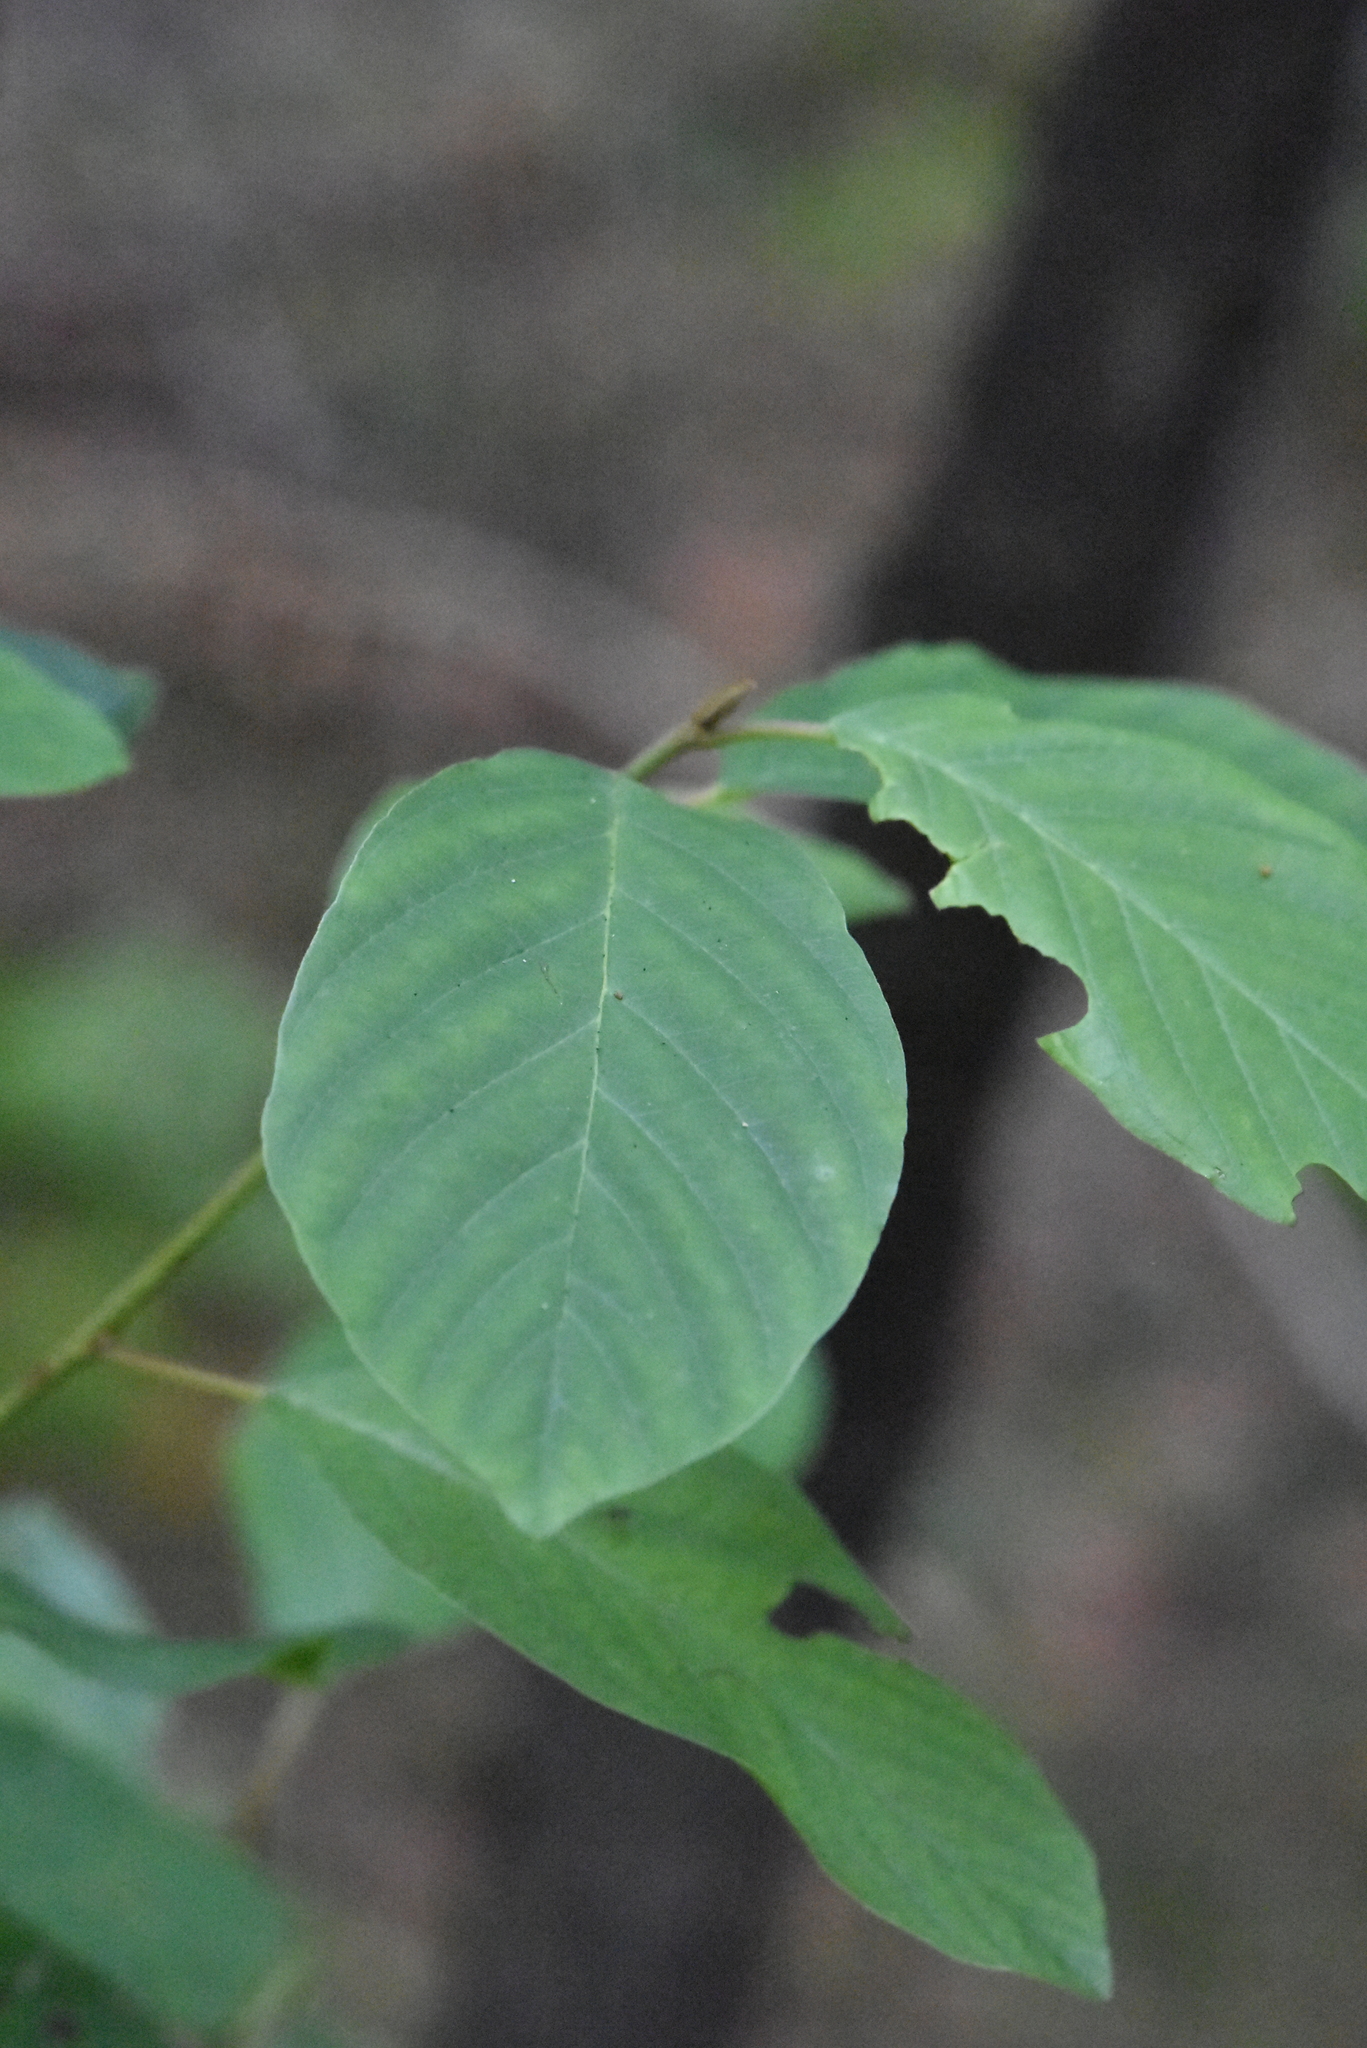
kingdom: Plantae
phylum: Tracheophyta
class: Magnoliopsida
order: Rosales
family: Rhamnaceae
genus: Frangula
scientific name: Frangula alnus
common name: Alder buckthorn
